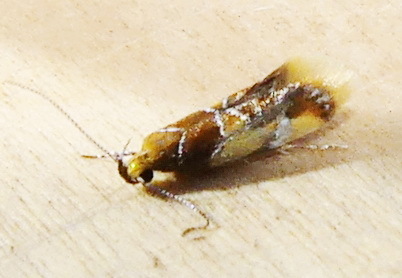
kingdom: Animalia
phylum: Arthropoda
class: Insecta
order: Lepidoptera
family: Oecophoridae
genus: Callima
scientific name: Callima argenticinctella
